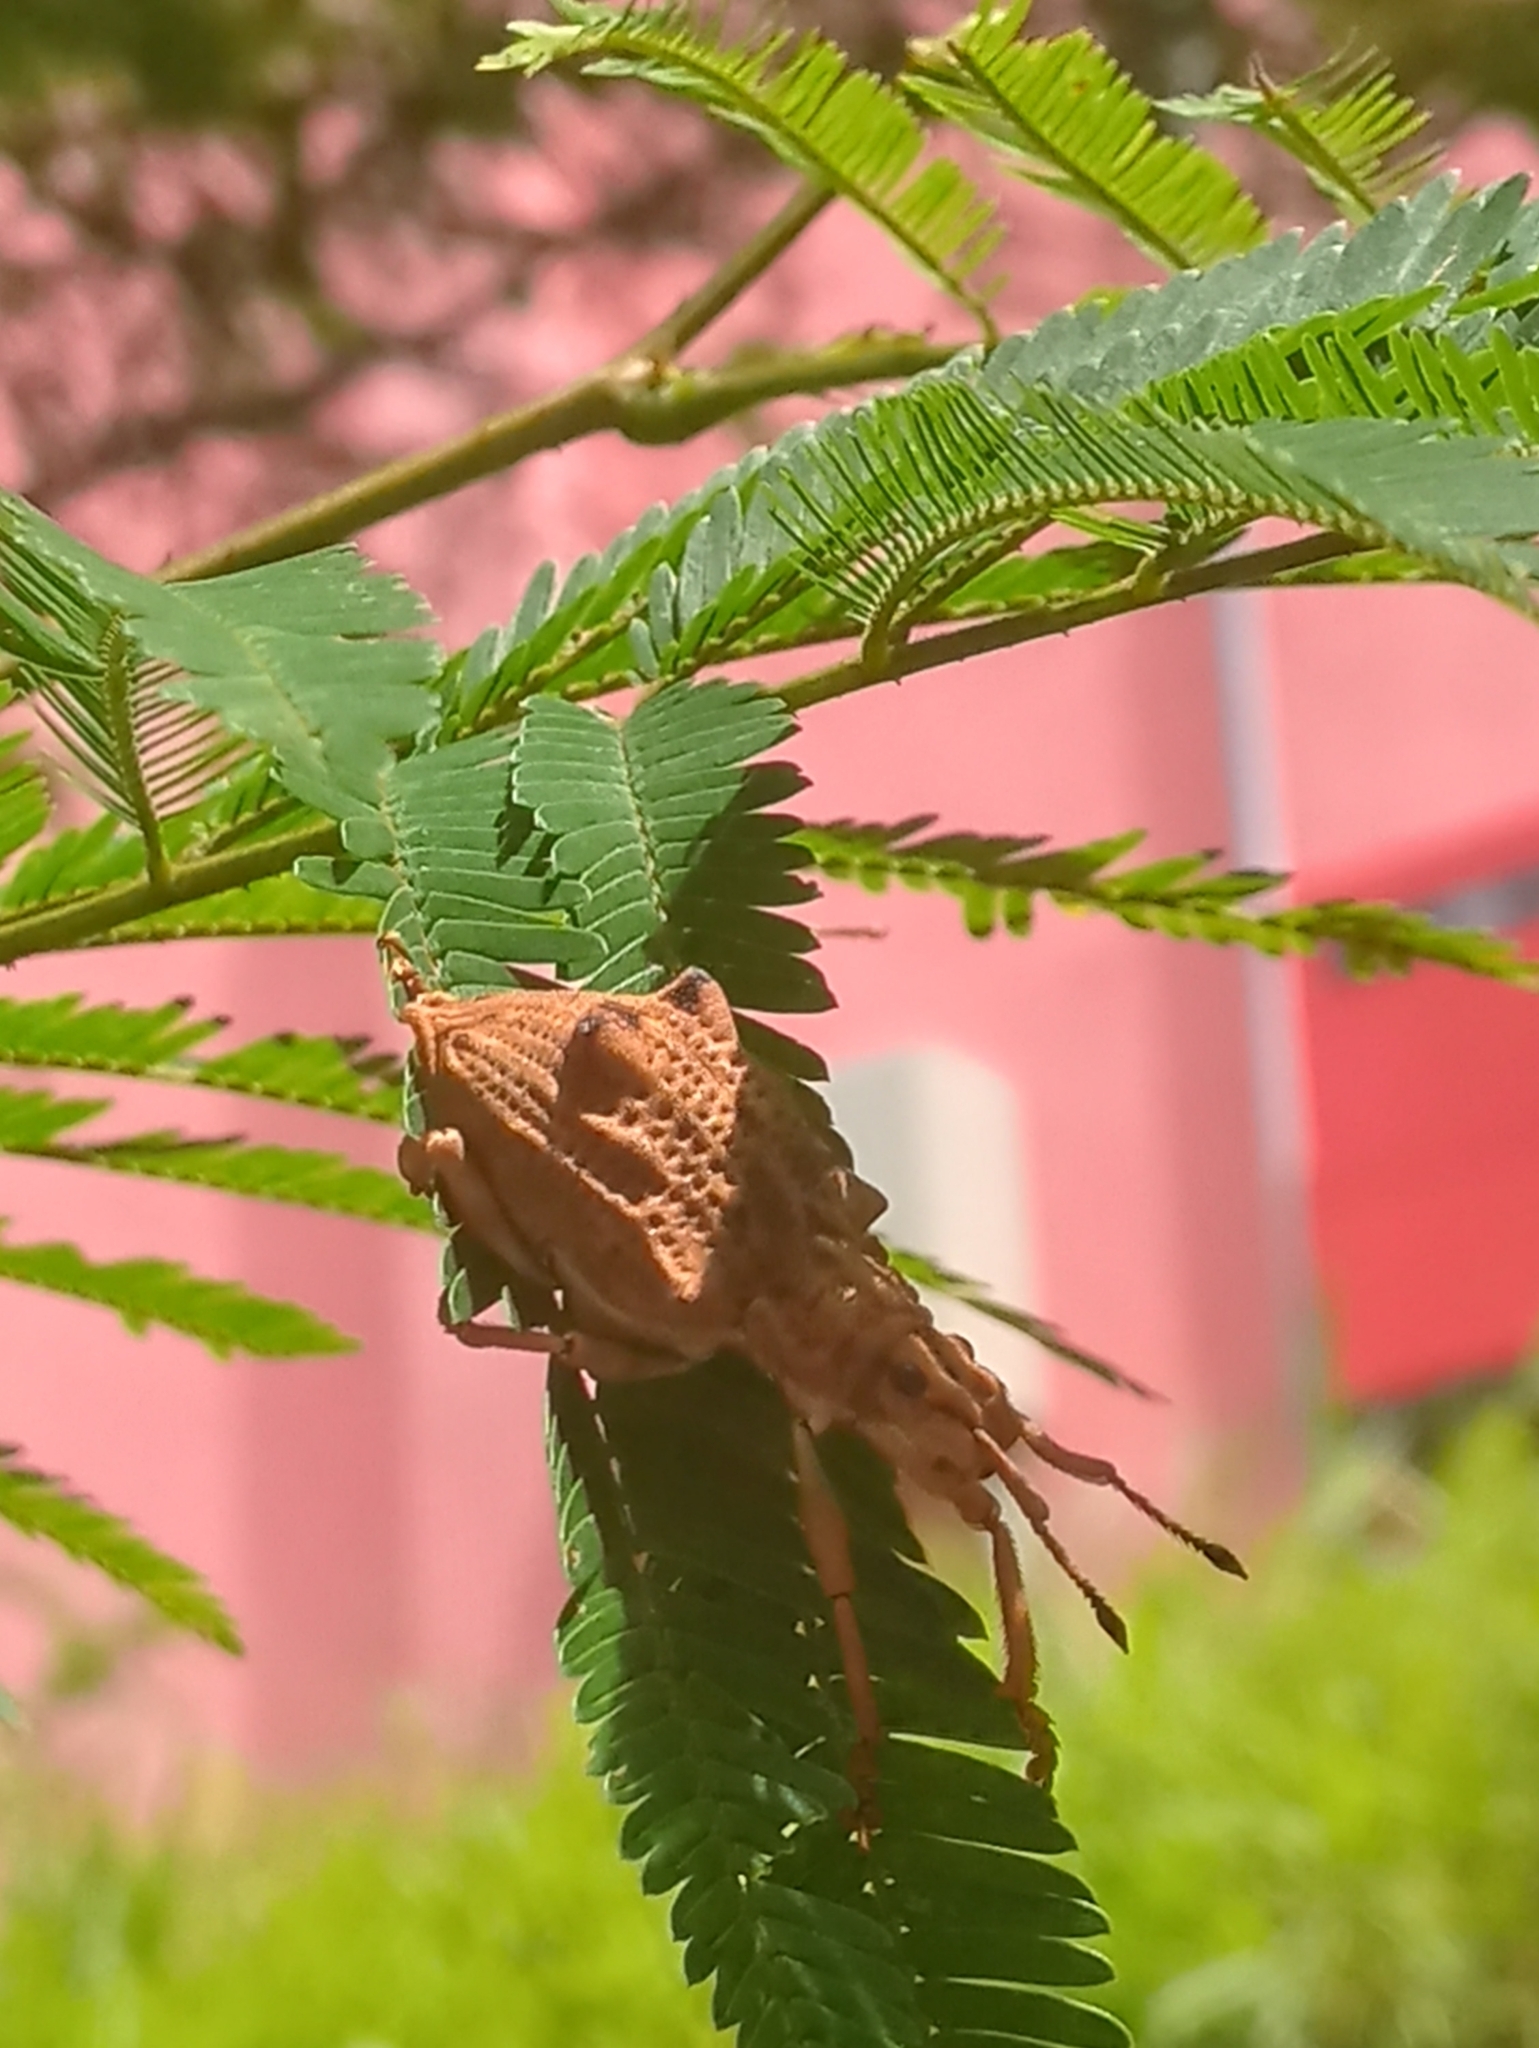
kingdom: Animalia
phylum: Arthropoda
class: Insecta
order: Coleoptera
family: Curculionidae
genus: Platyomus
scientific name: Platyomus nodipennis
